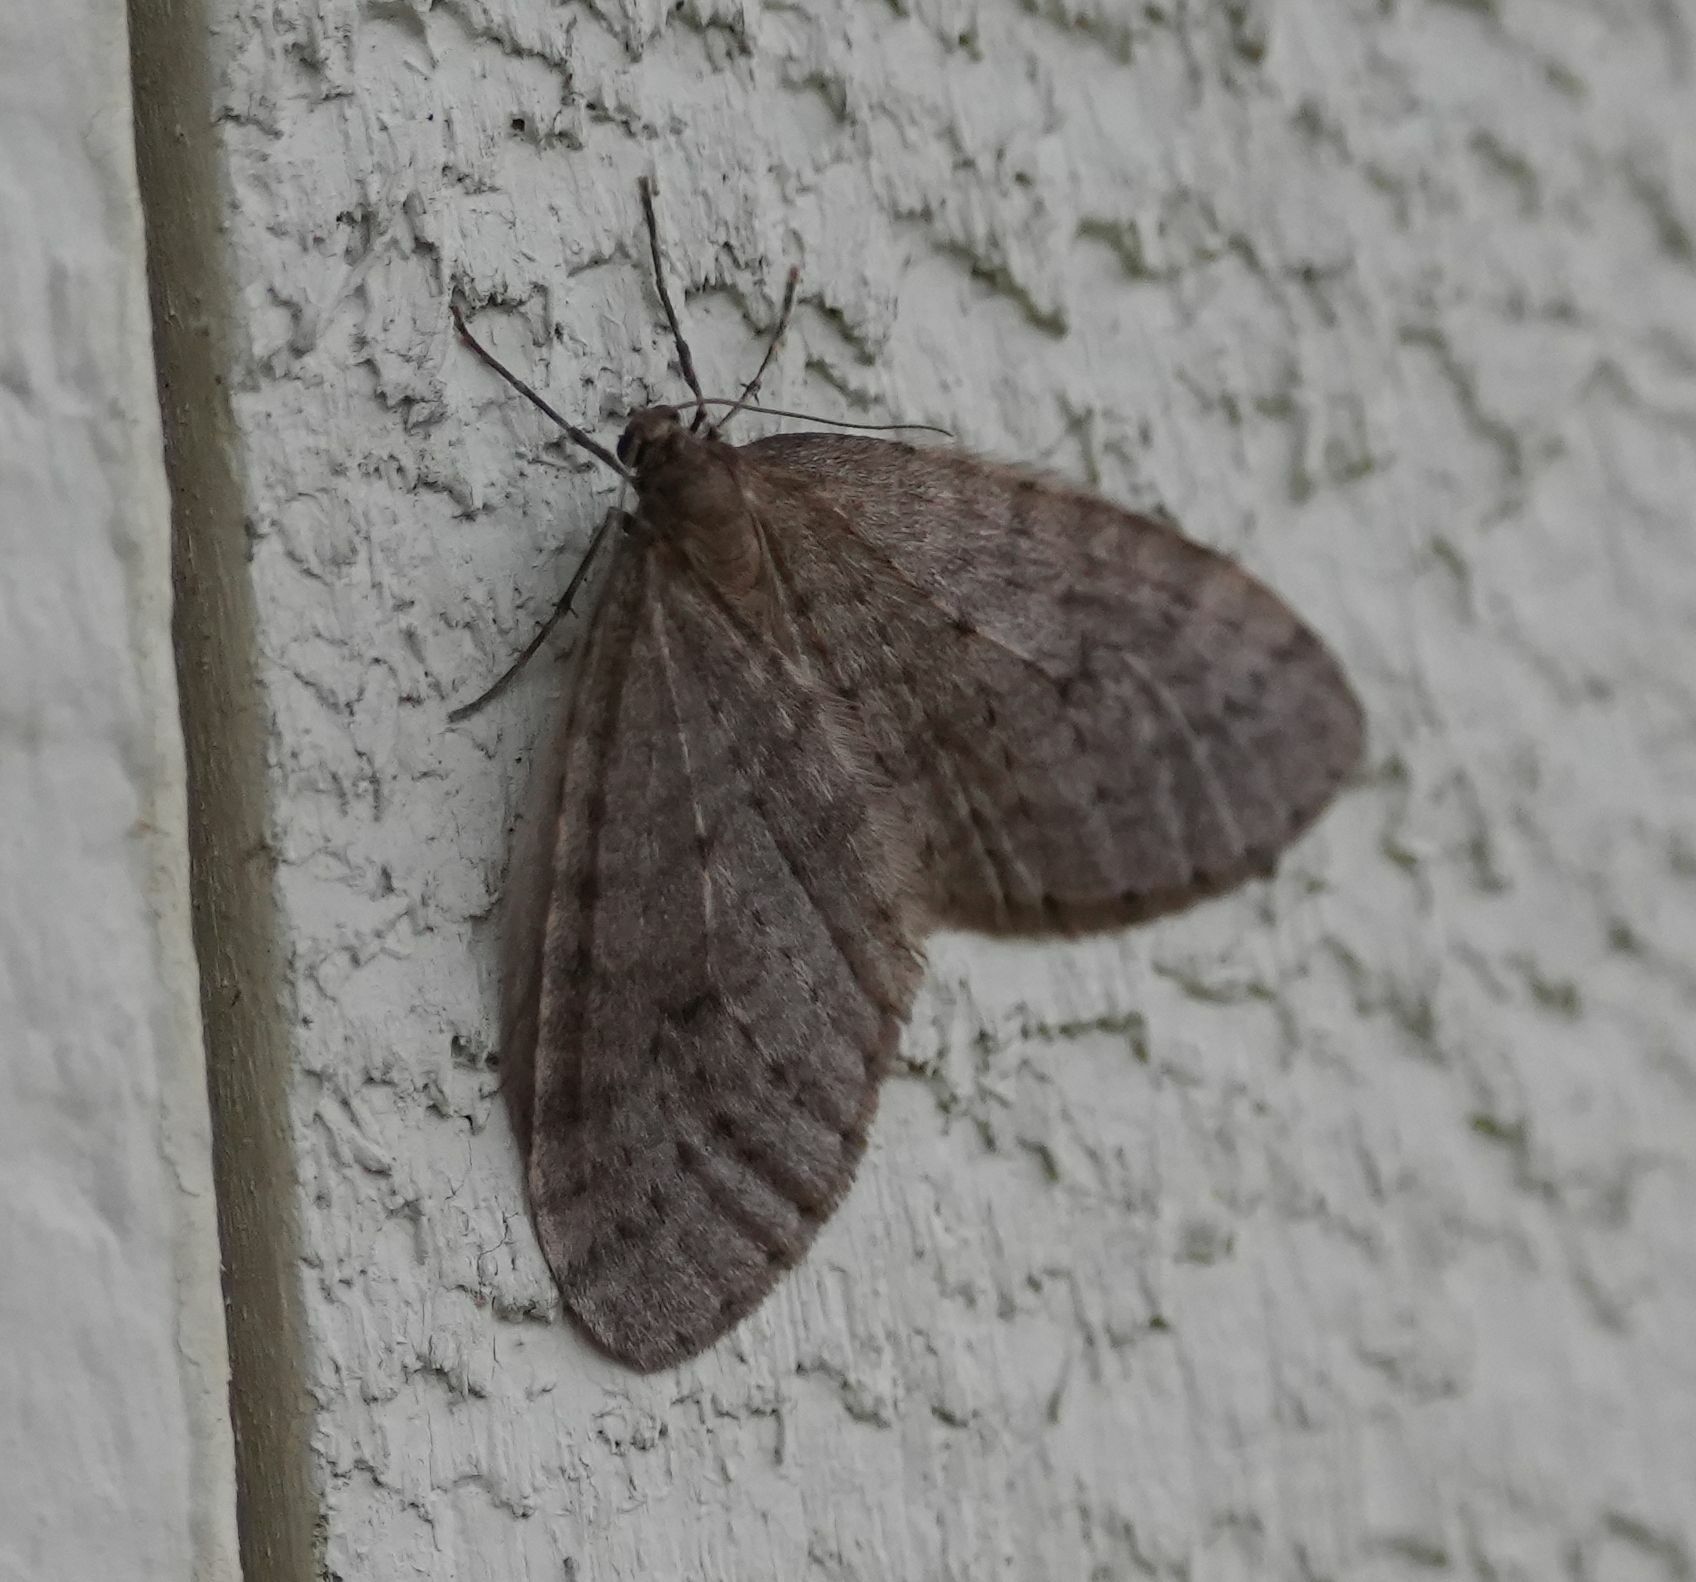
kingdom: Animalia
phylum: Arthropoda
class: Insecta
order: Lepidoptera
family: Geometridae
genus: Operophtera
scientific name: Operophtera bruceata
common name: Bruce spanworm
